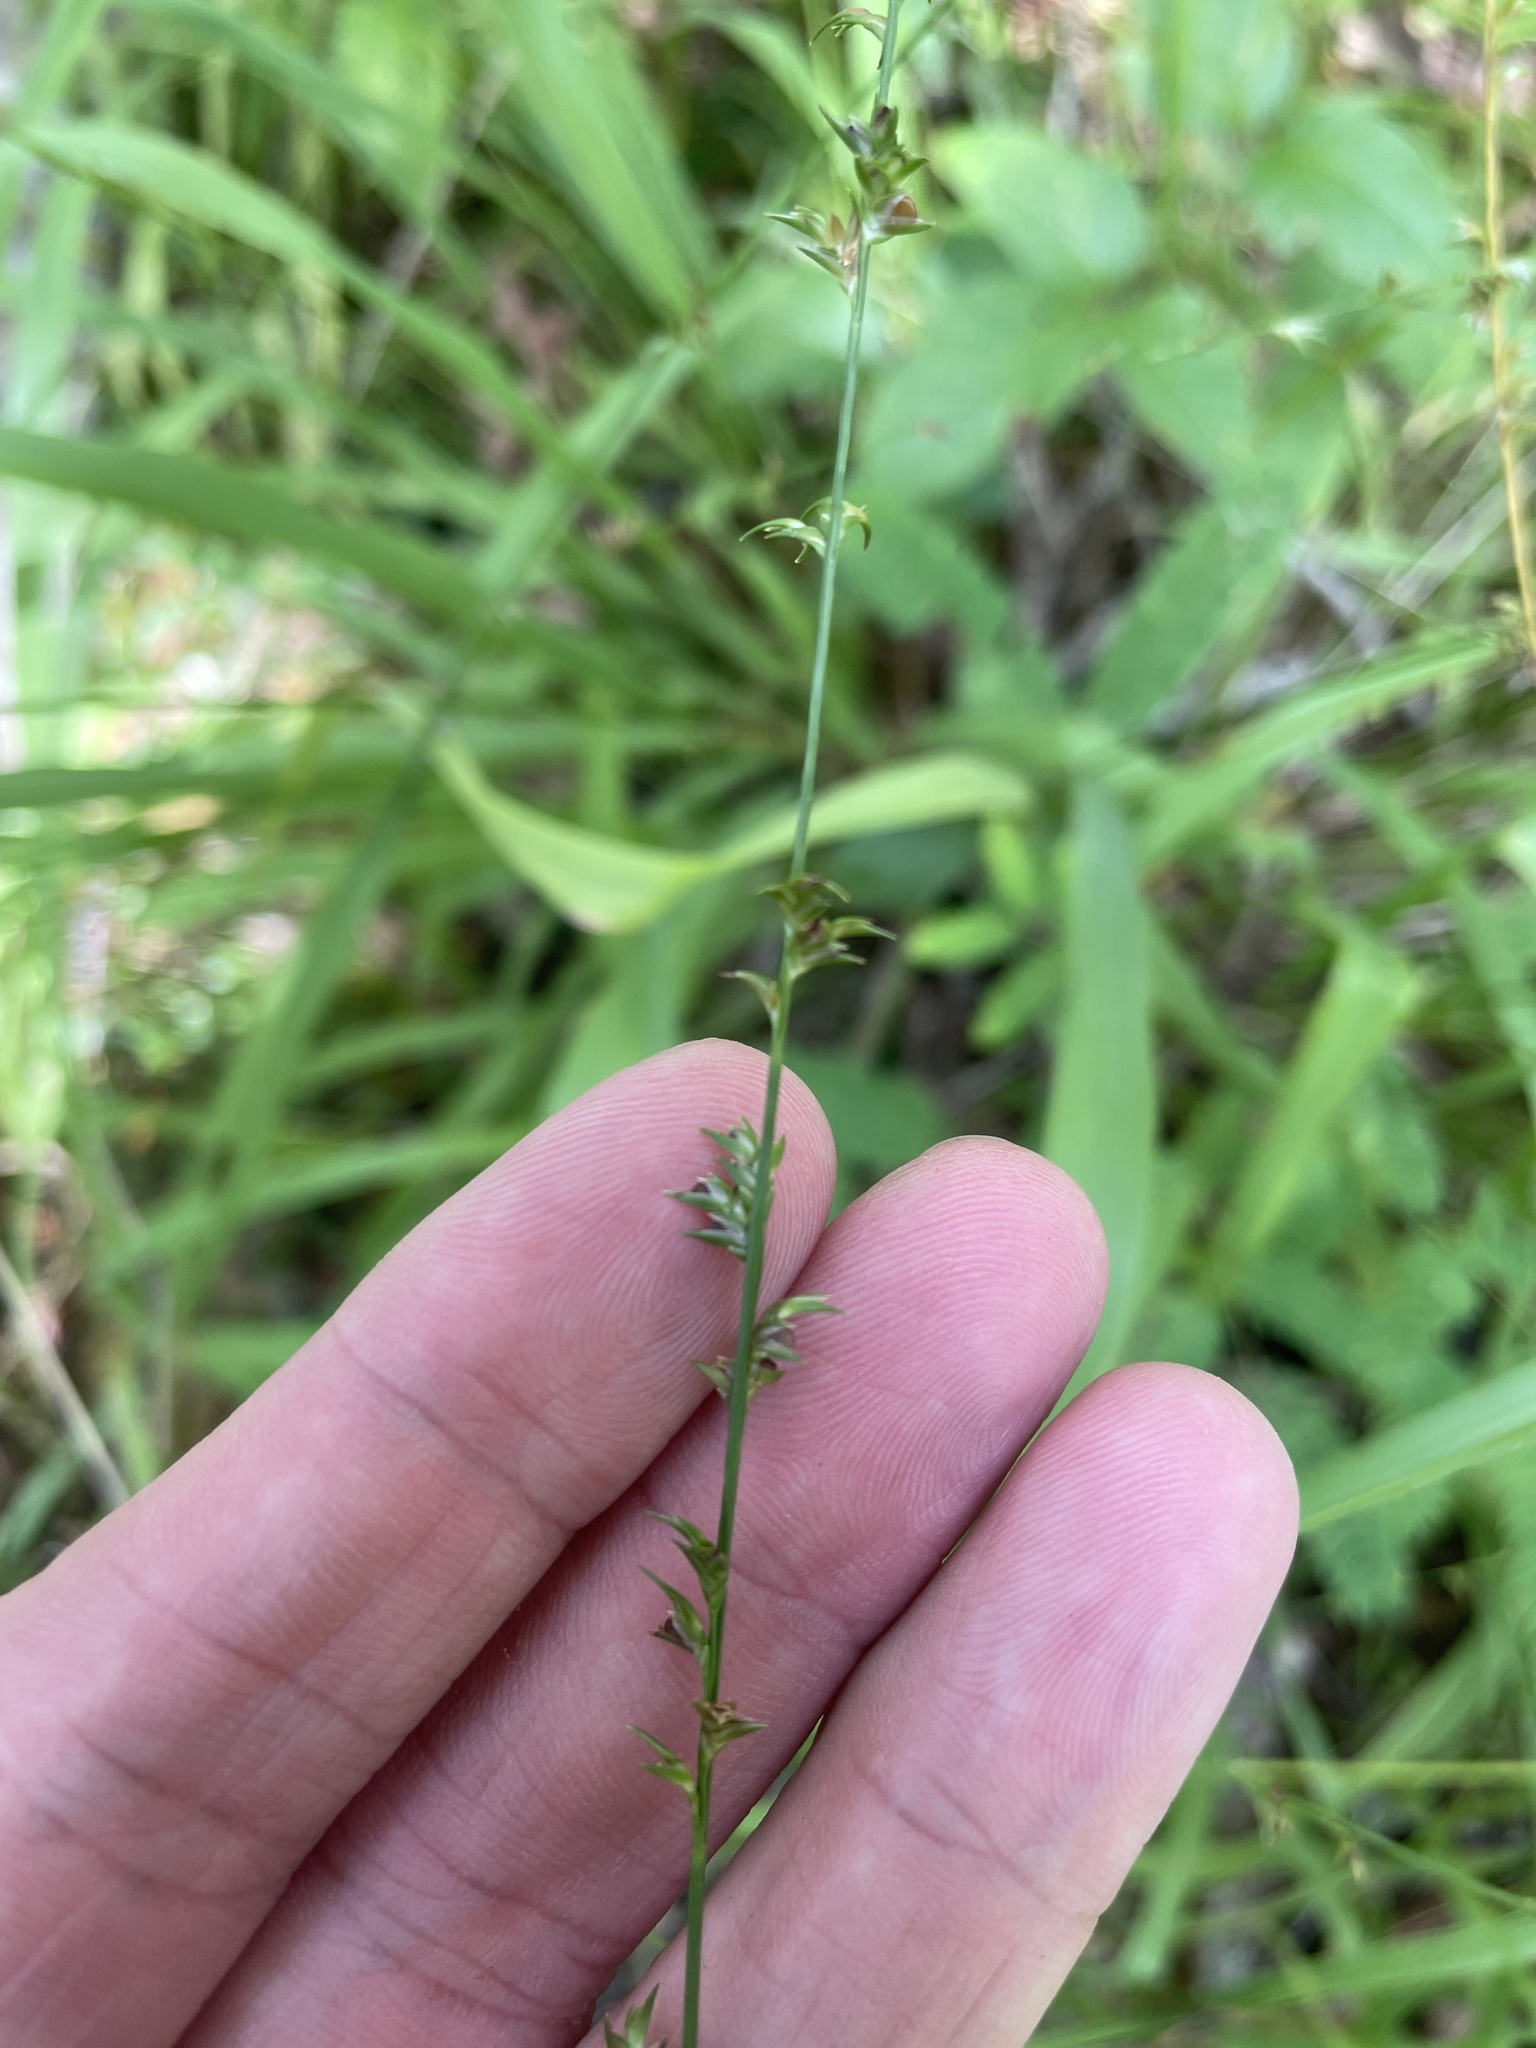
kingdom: Plantae
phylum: Tracheophyta
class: Liliopsida
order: Poales
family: Poaceae
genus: Chasmanthium
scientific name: Chasmanthium laxum
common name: Slender chasmanthium
